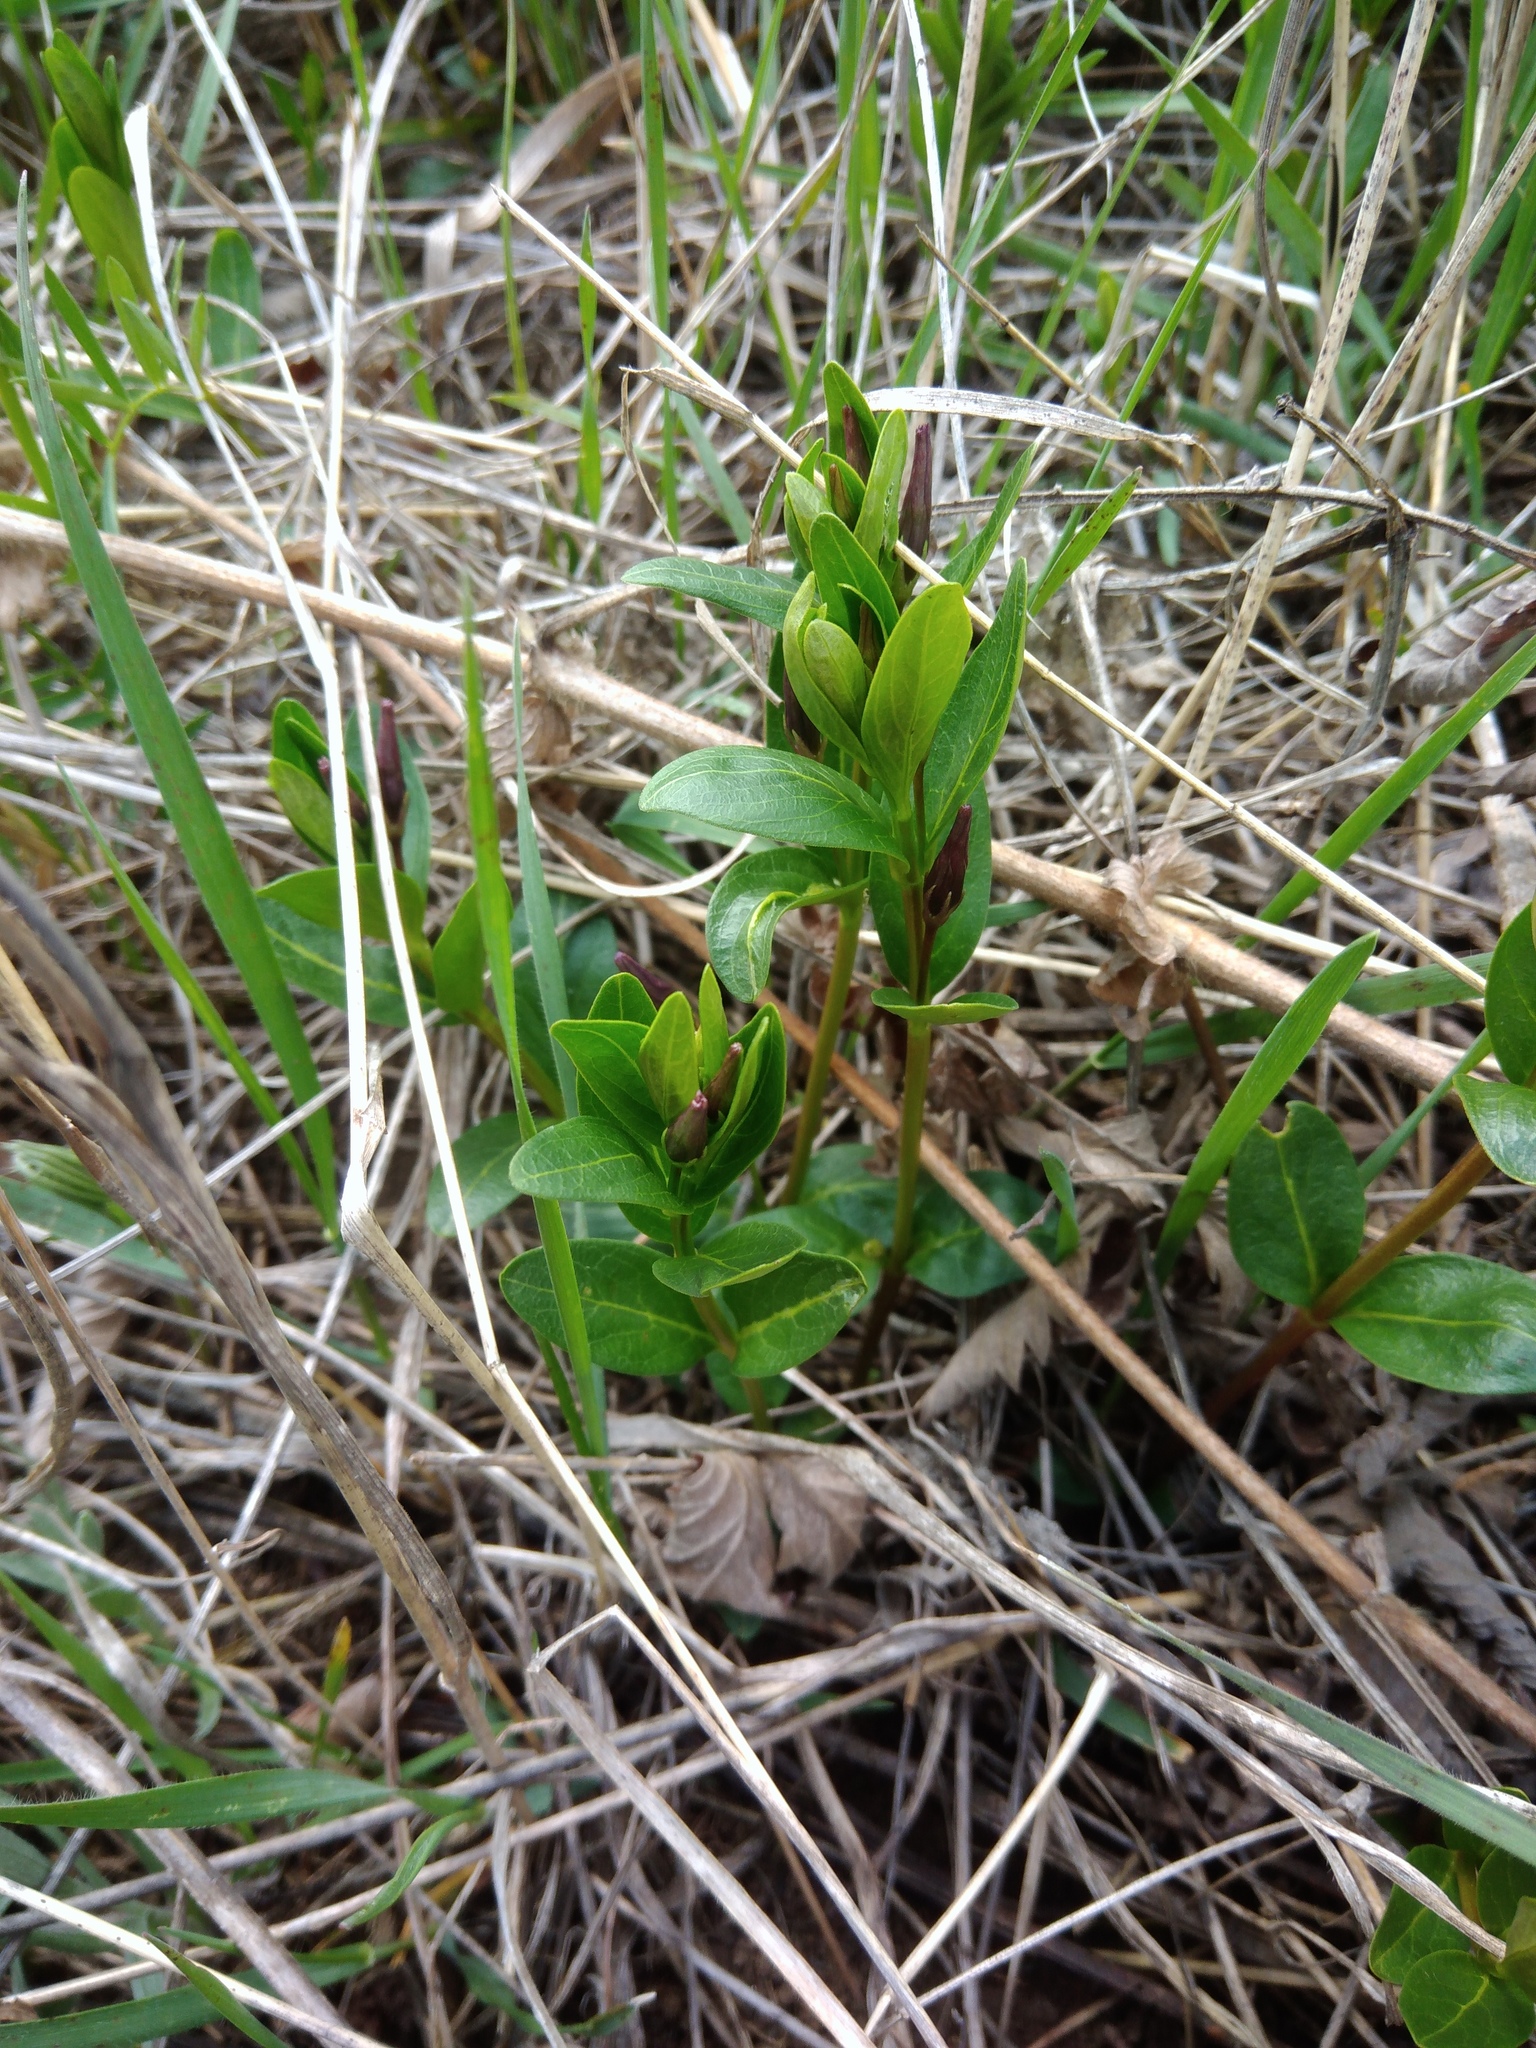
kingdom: Plantae
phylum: Tracheophyta
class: Magnoliopsida
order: Gentianales
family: Apocynaceae
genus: Vinca
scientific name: Vinca herbacea
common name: Herbaceous periwinkle
